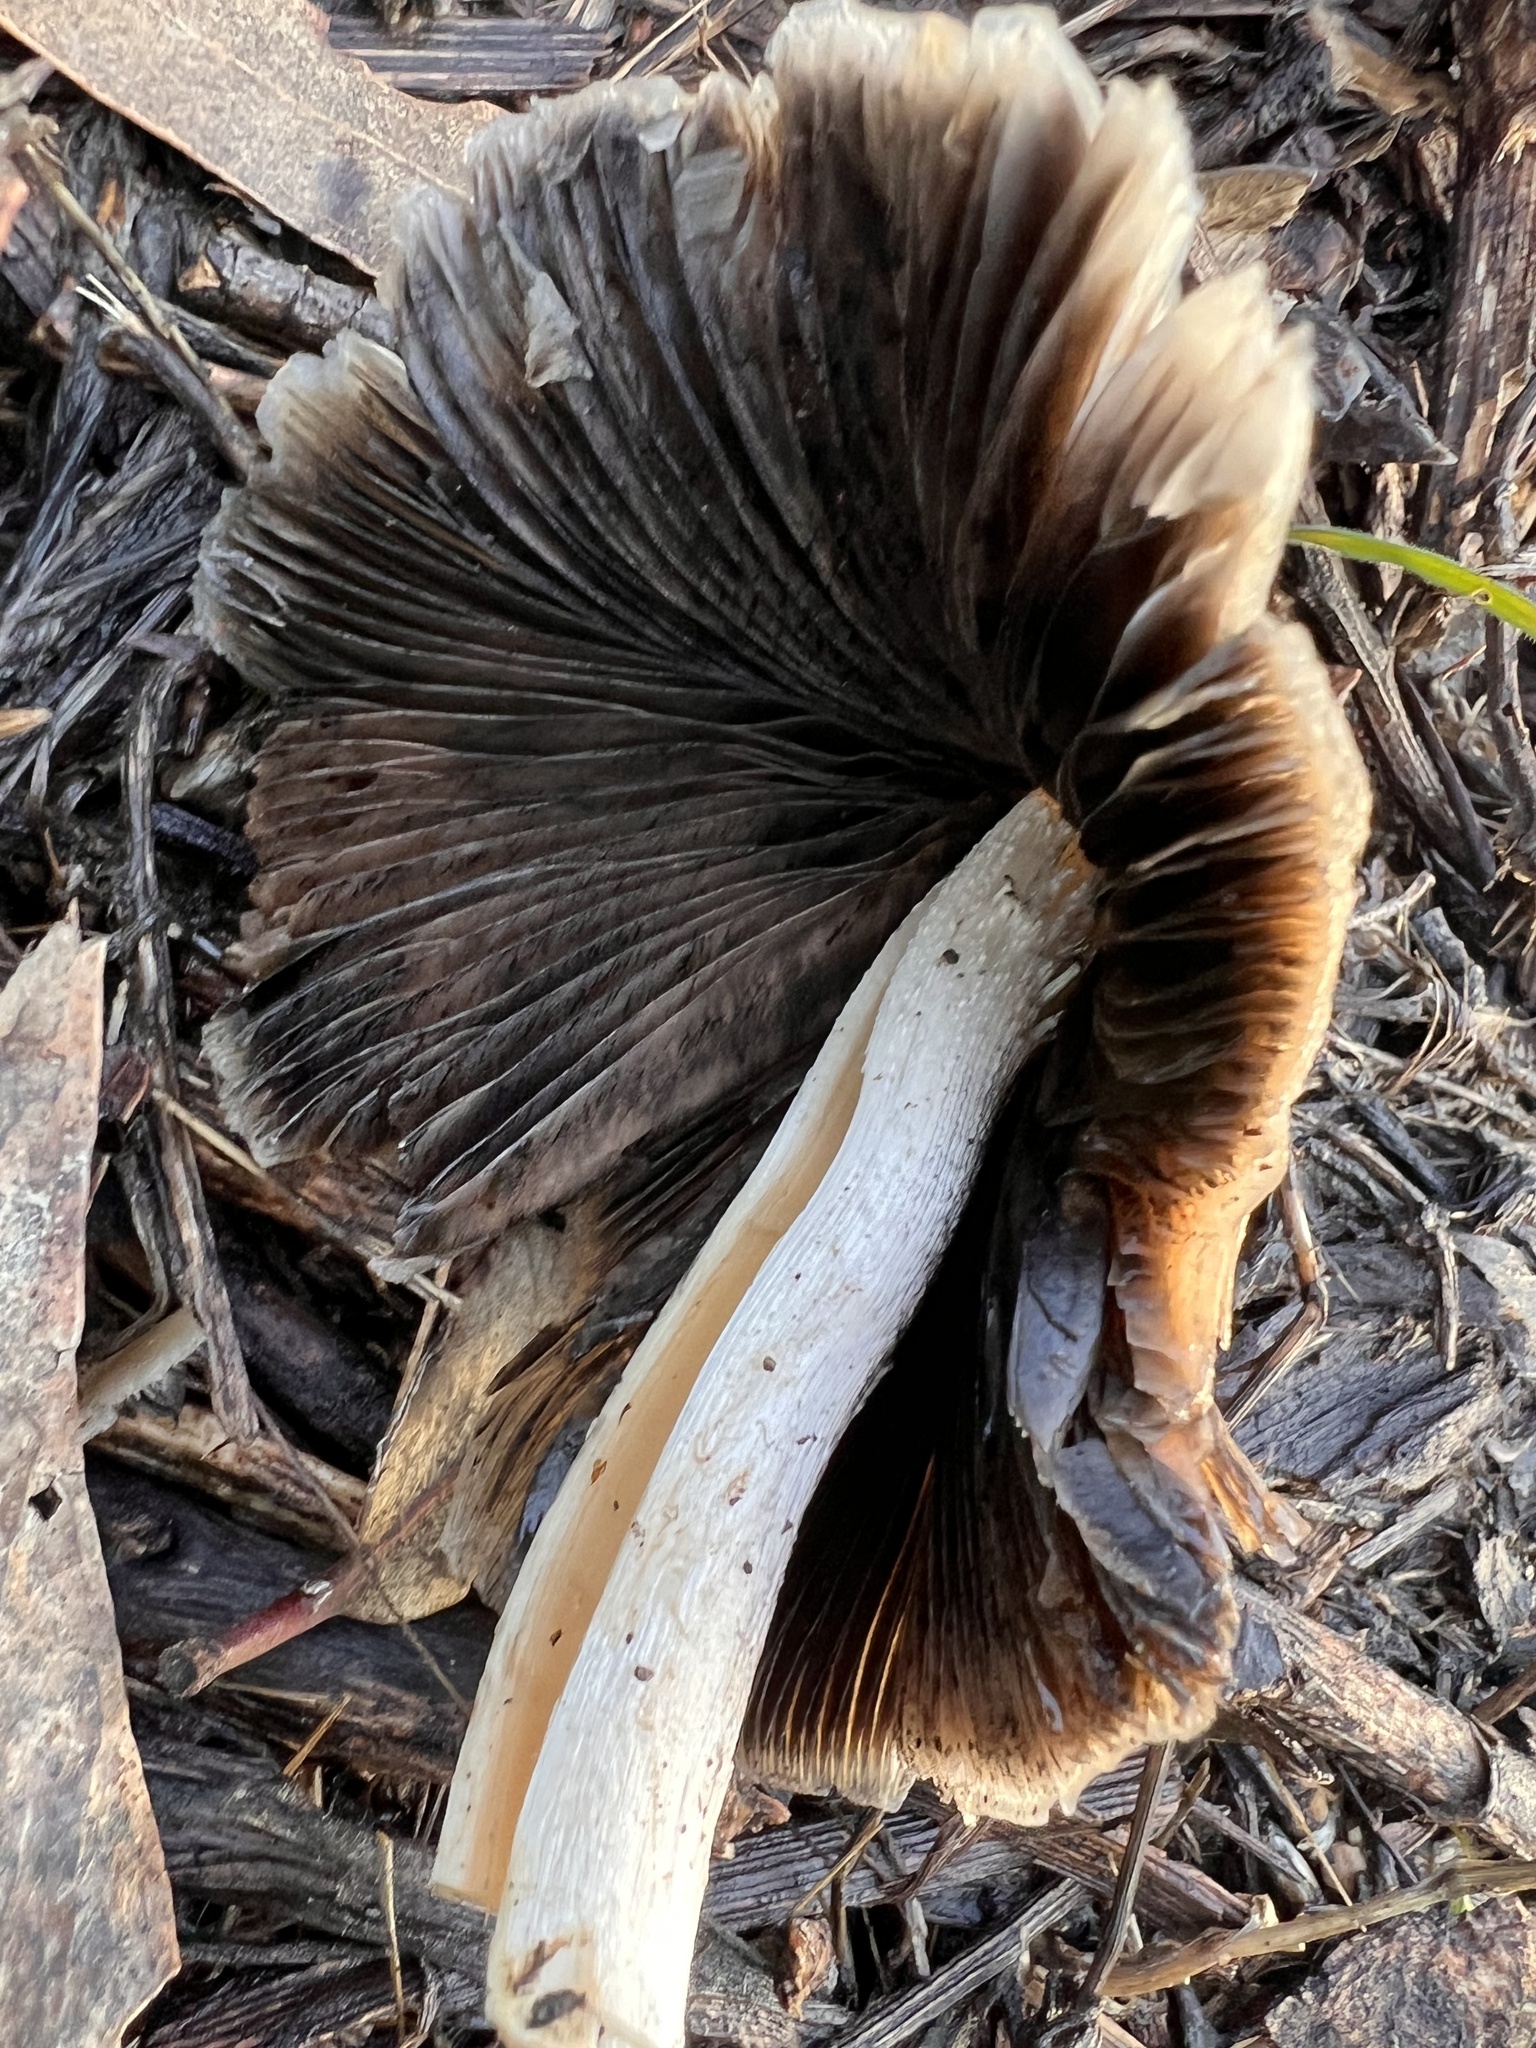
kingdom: Fungi
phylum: Basidiomycota
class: Agaricomycetes
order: Agaricales
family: Psathyrellaceae
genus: Psathyrella
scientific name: Psathyrella longipes
